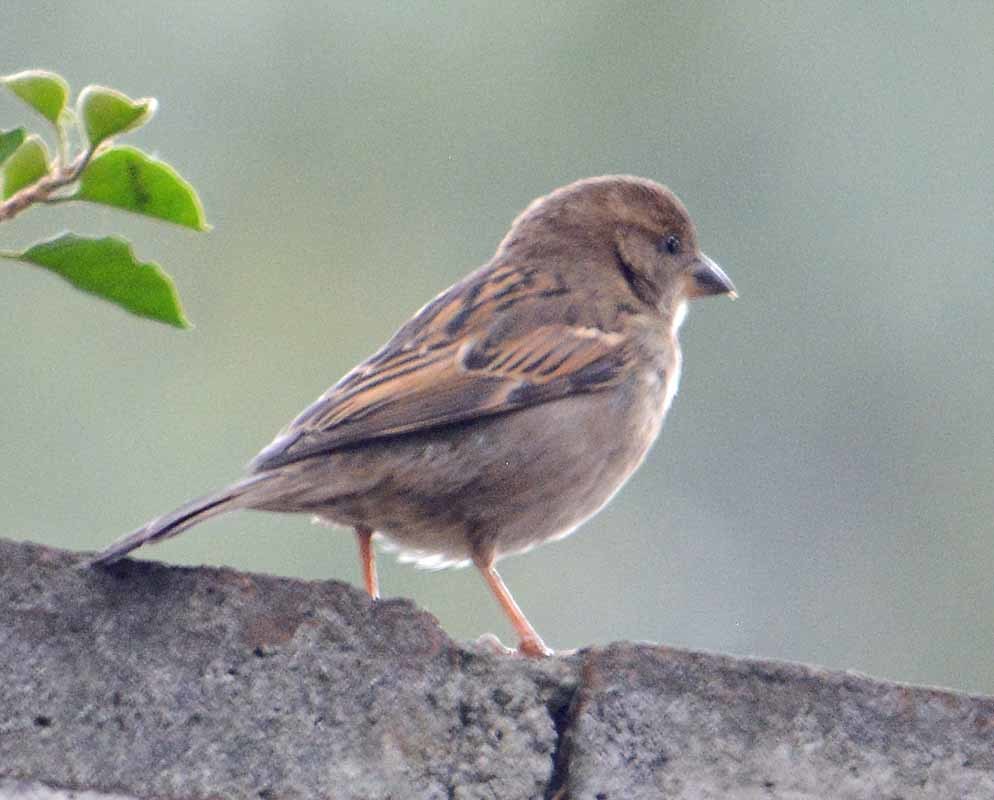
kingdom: Animalia
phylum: Chordata
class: Aves
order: Passeriformes
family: Passeridae
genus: Passer
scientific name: Passer domesticus
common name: House sparrow
